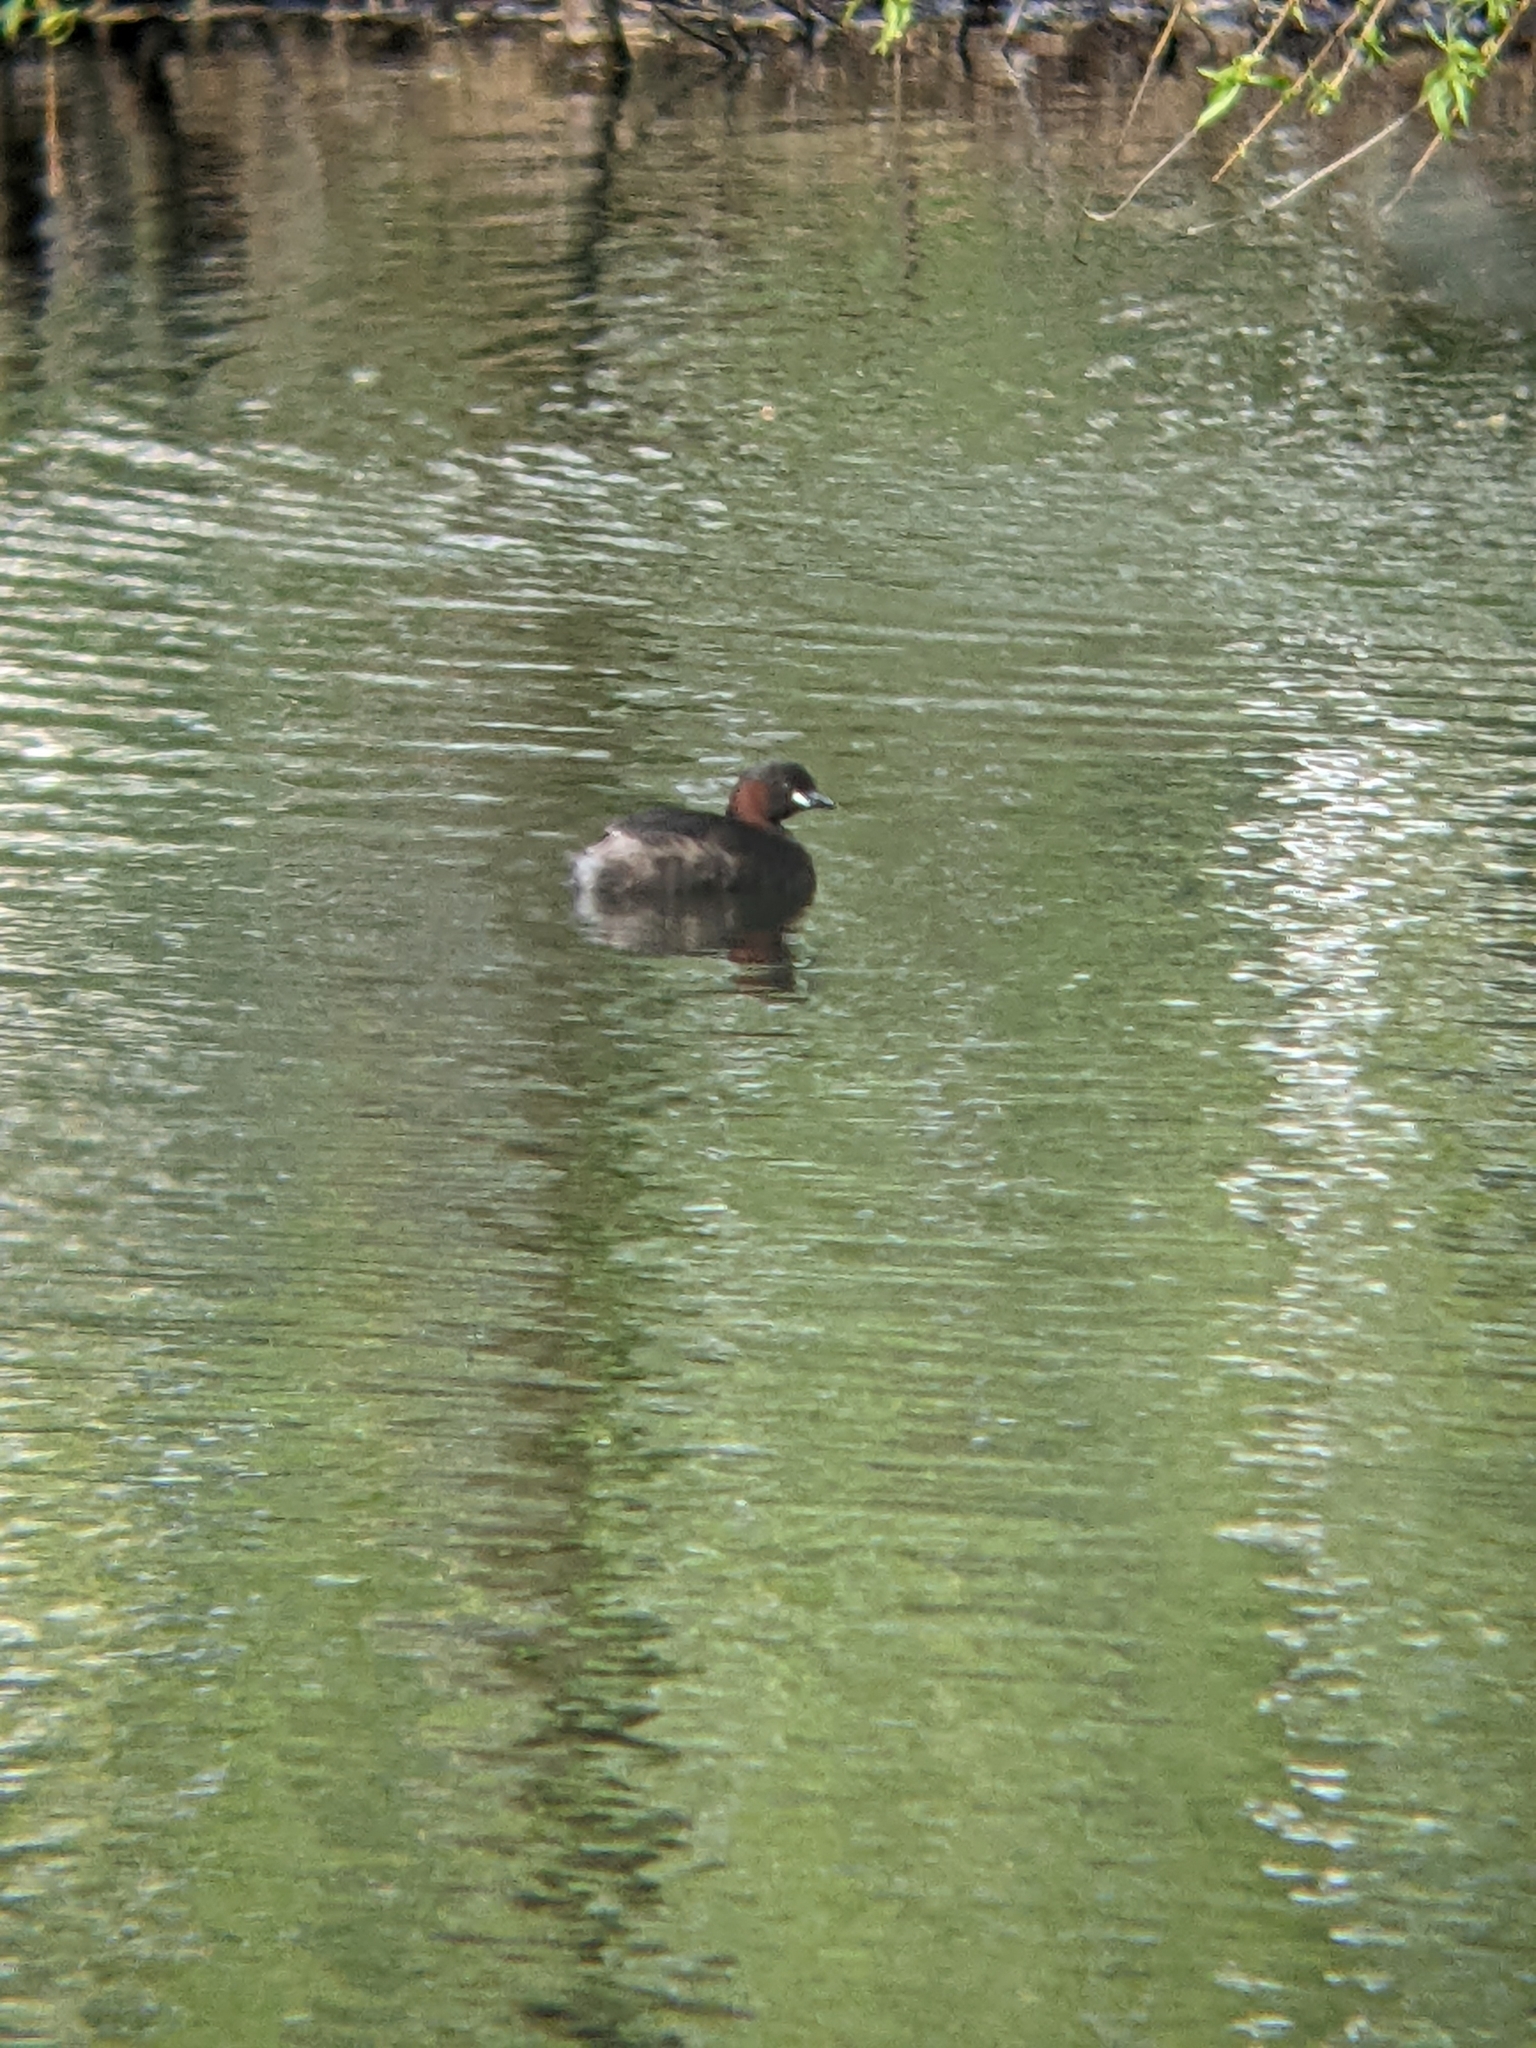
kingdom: Animalia
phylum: Chordata
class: Aves
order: Podicipediformes
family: Podicipedidae
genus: Tachybaptus
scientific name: Tachybaptus ruficollis
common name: Little grebe
